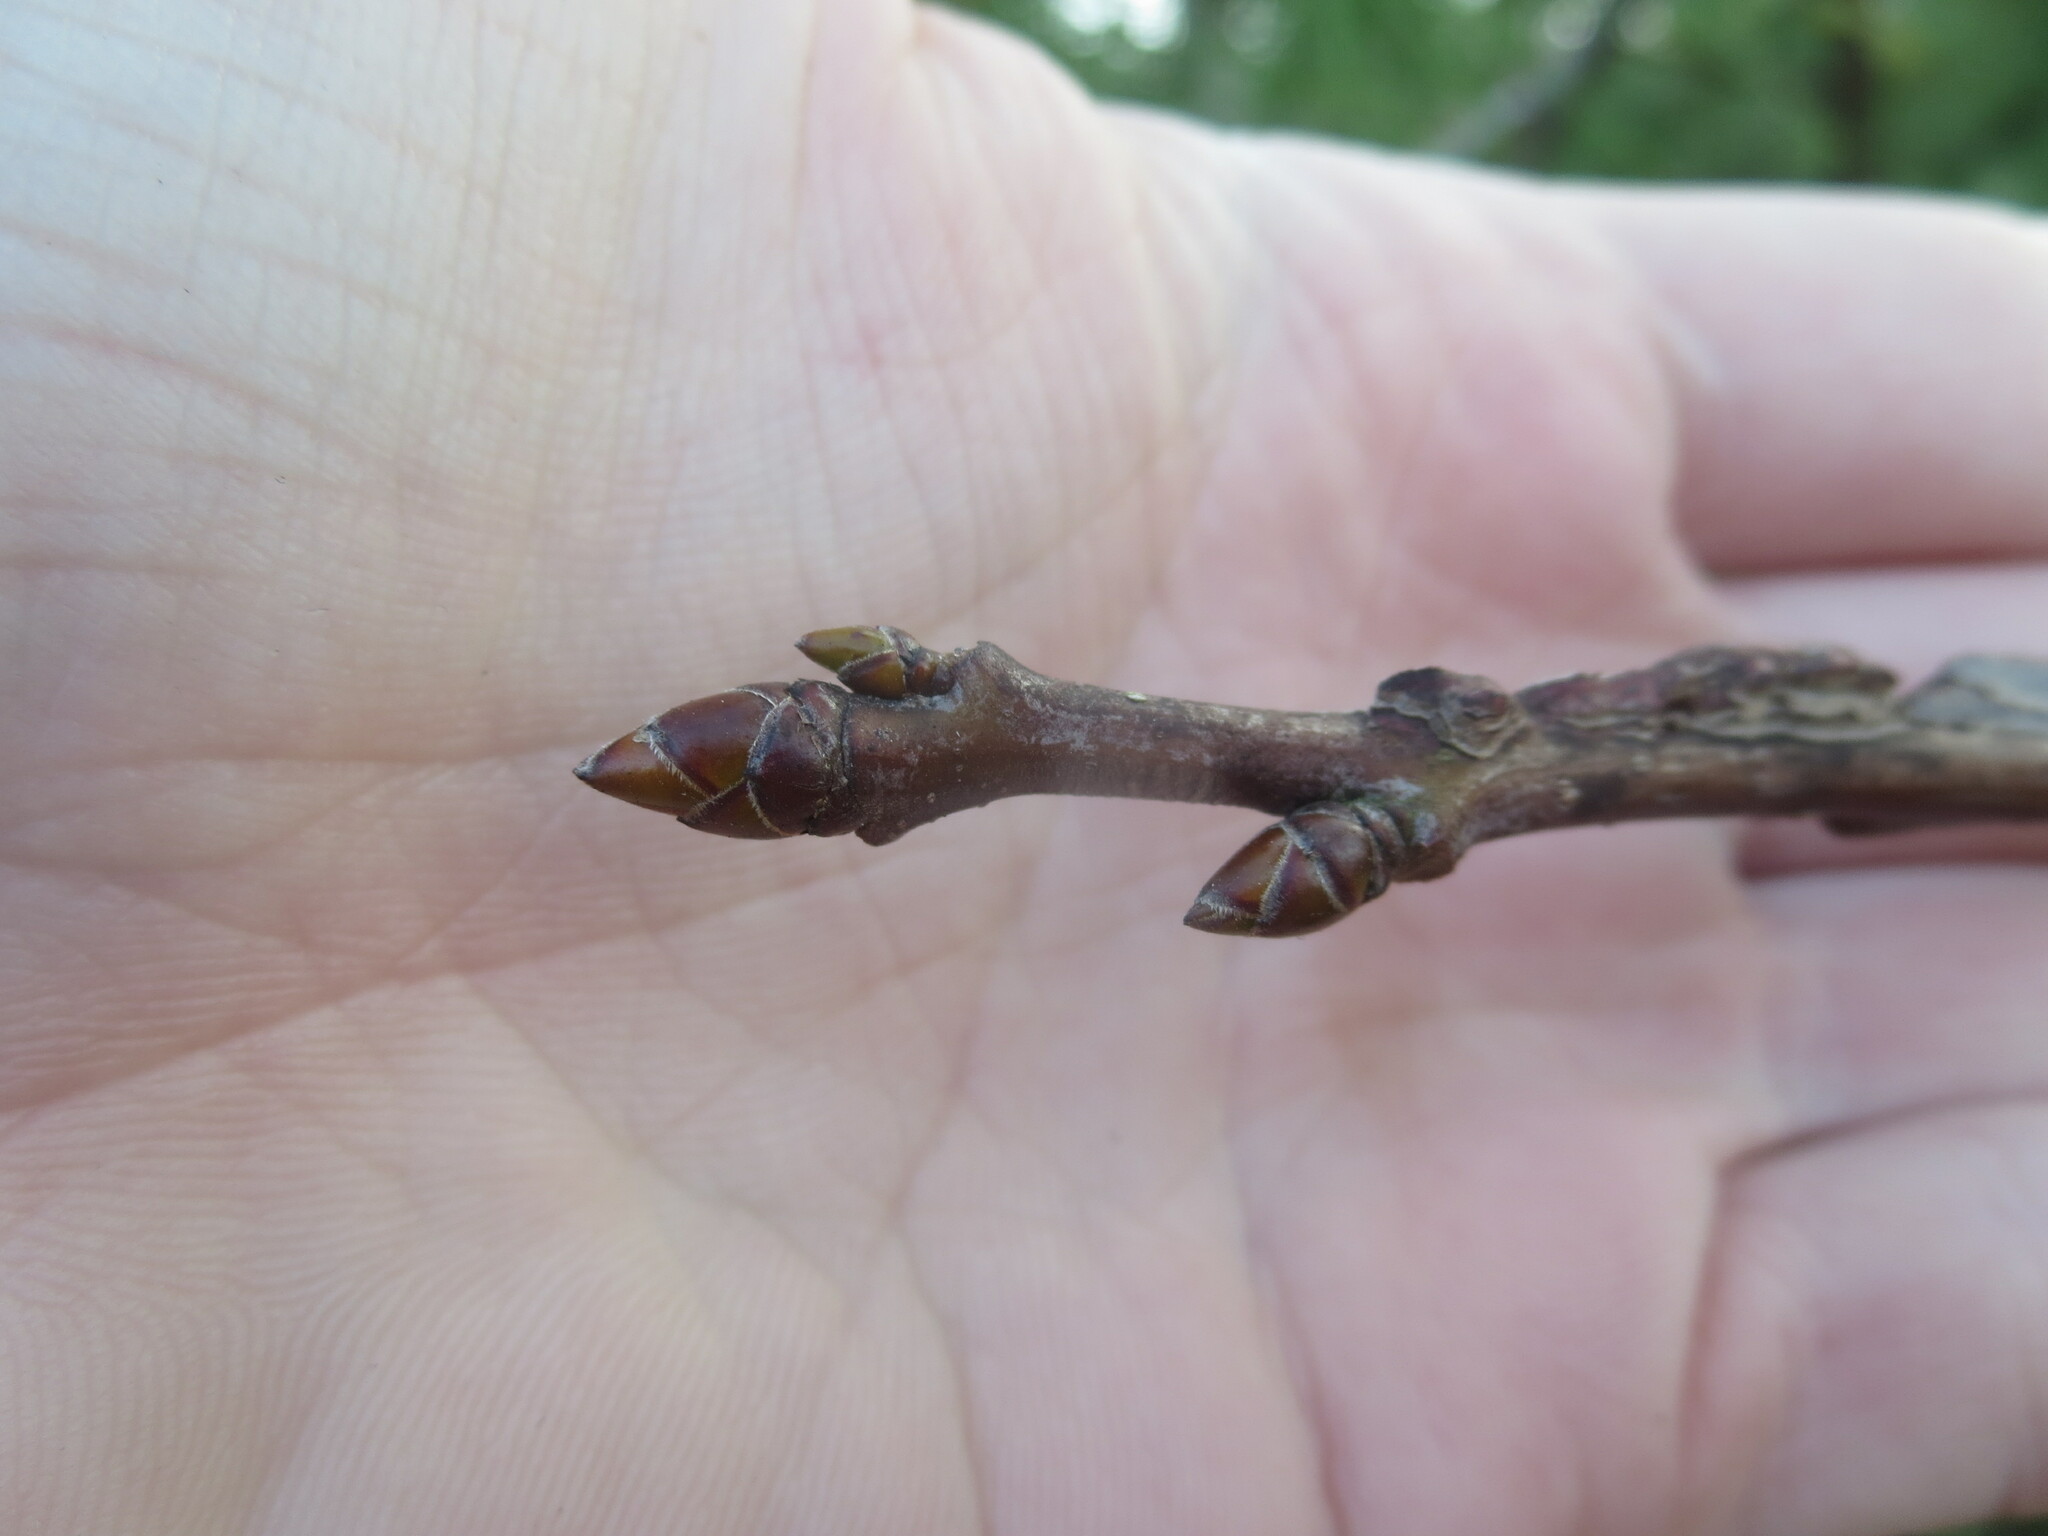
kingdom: Plantae
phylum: Tracheophyta
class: Magnoliopsida
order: Saxifragales
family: Altingiaceae
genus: Liquidambar
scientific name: Liquidambar styraciflua
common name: Sweet gum
